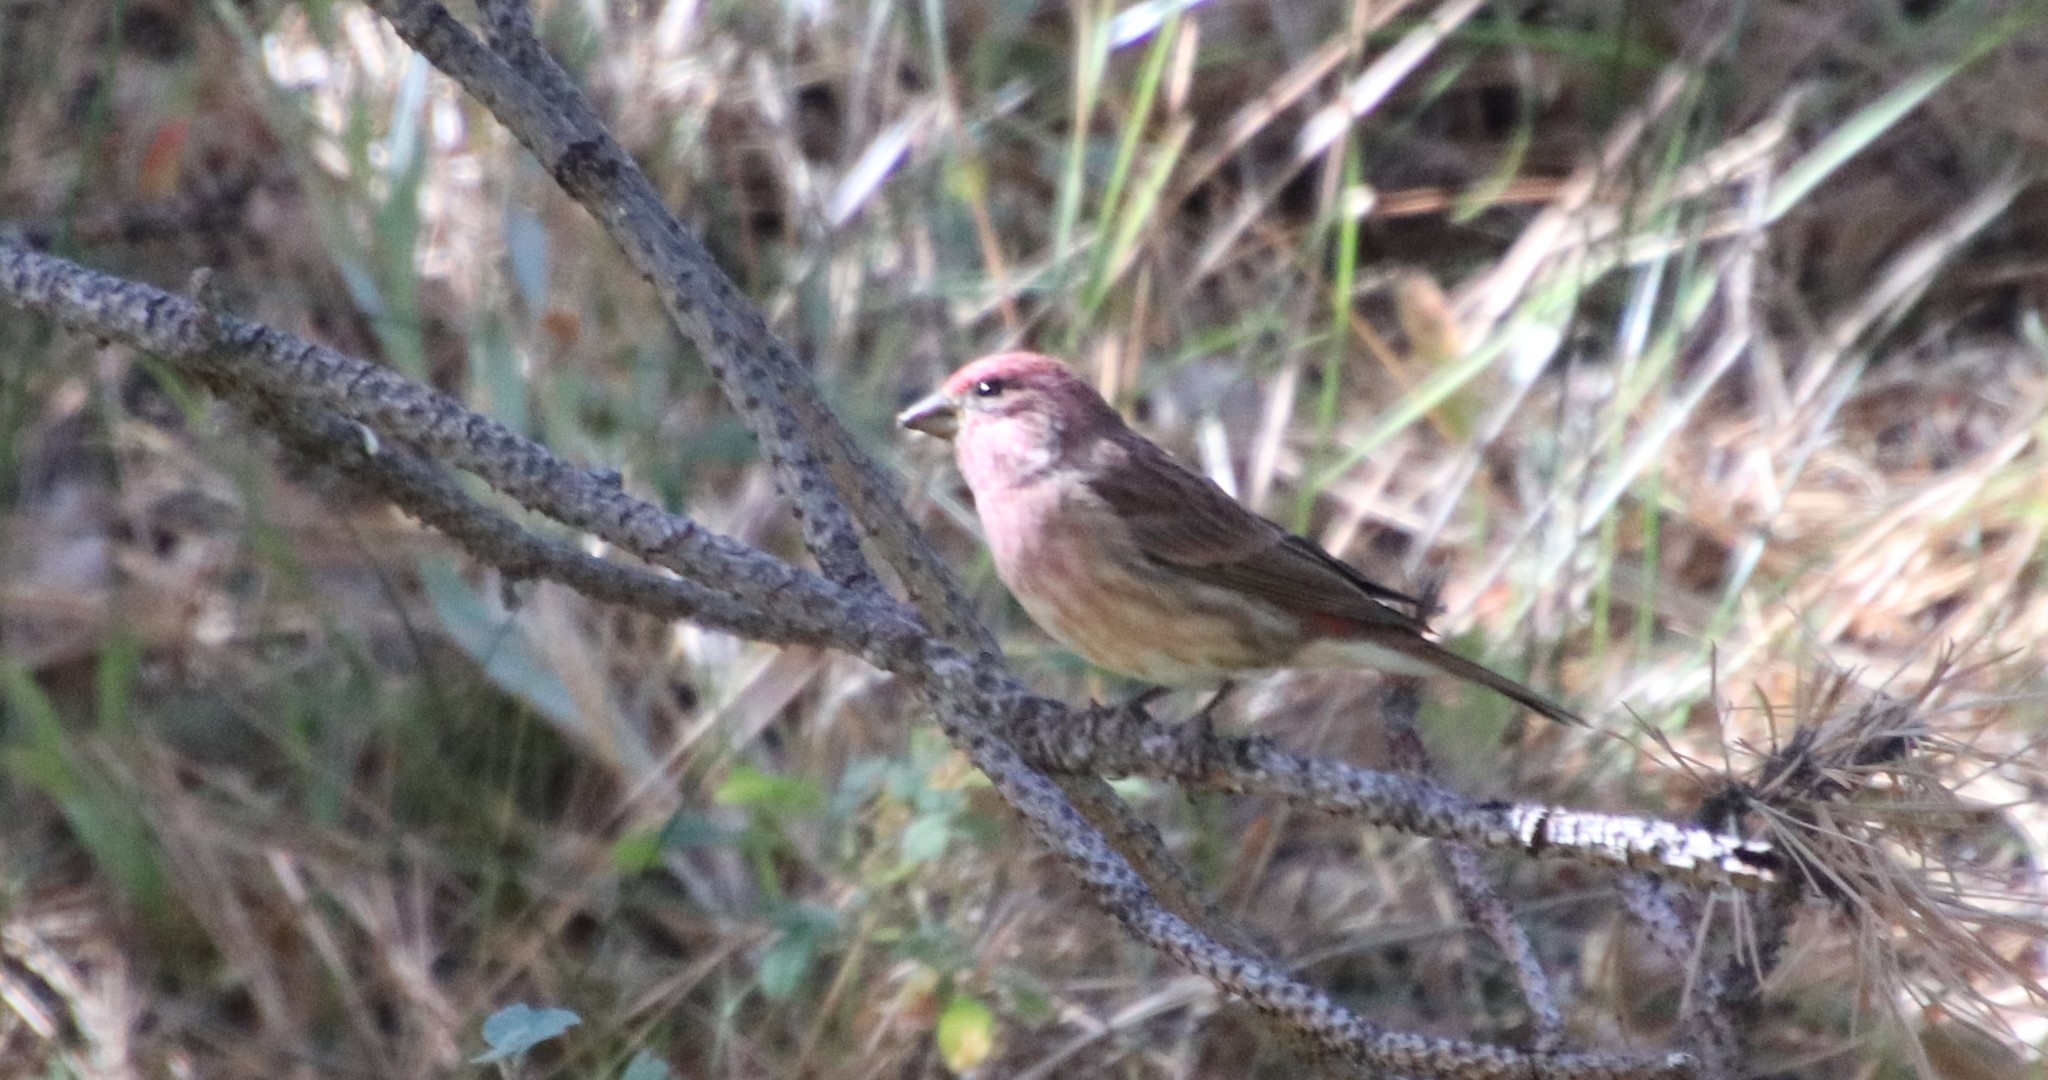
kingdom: Animalia
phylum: Chordata
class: Aves
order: Passeriformes
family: Fringillidae
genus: Haemorhous
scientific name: Haemorhous purpureus
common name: Purple finch
